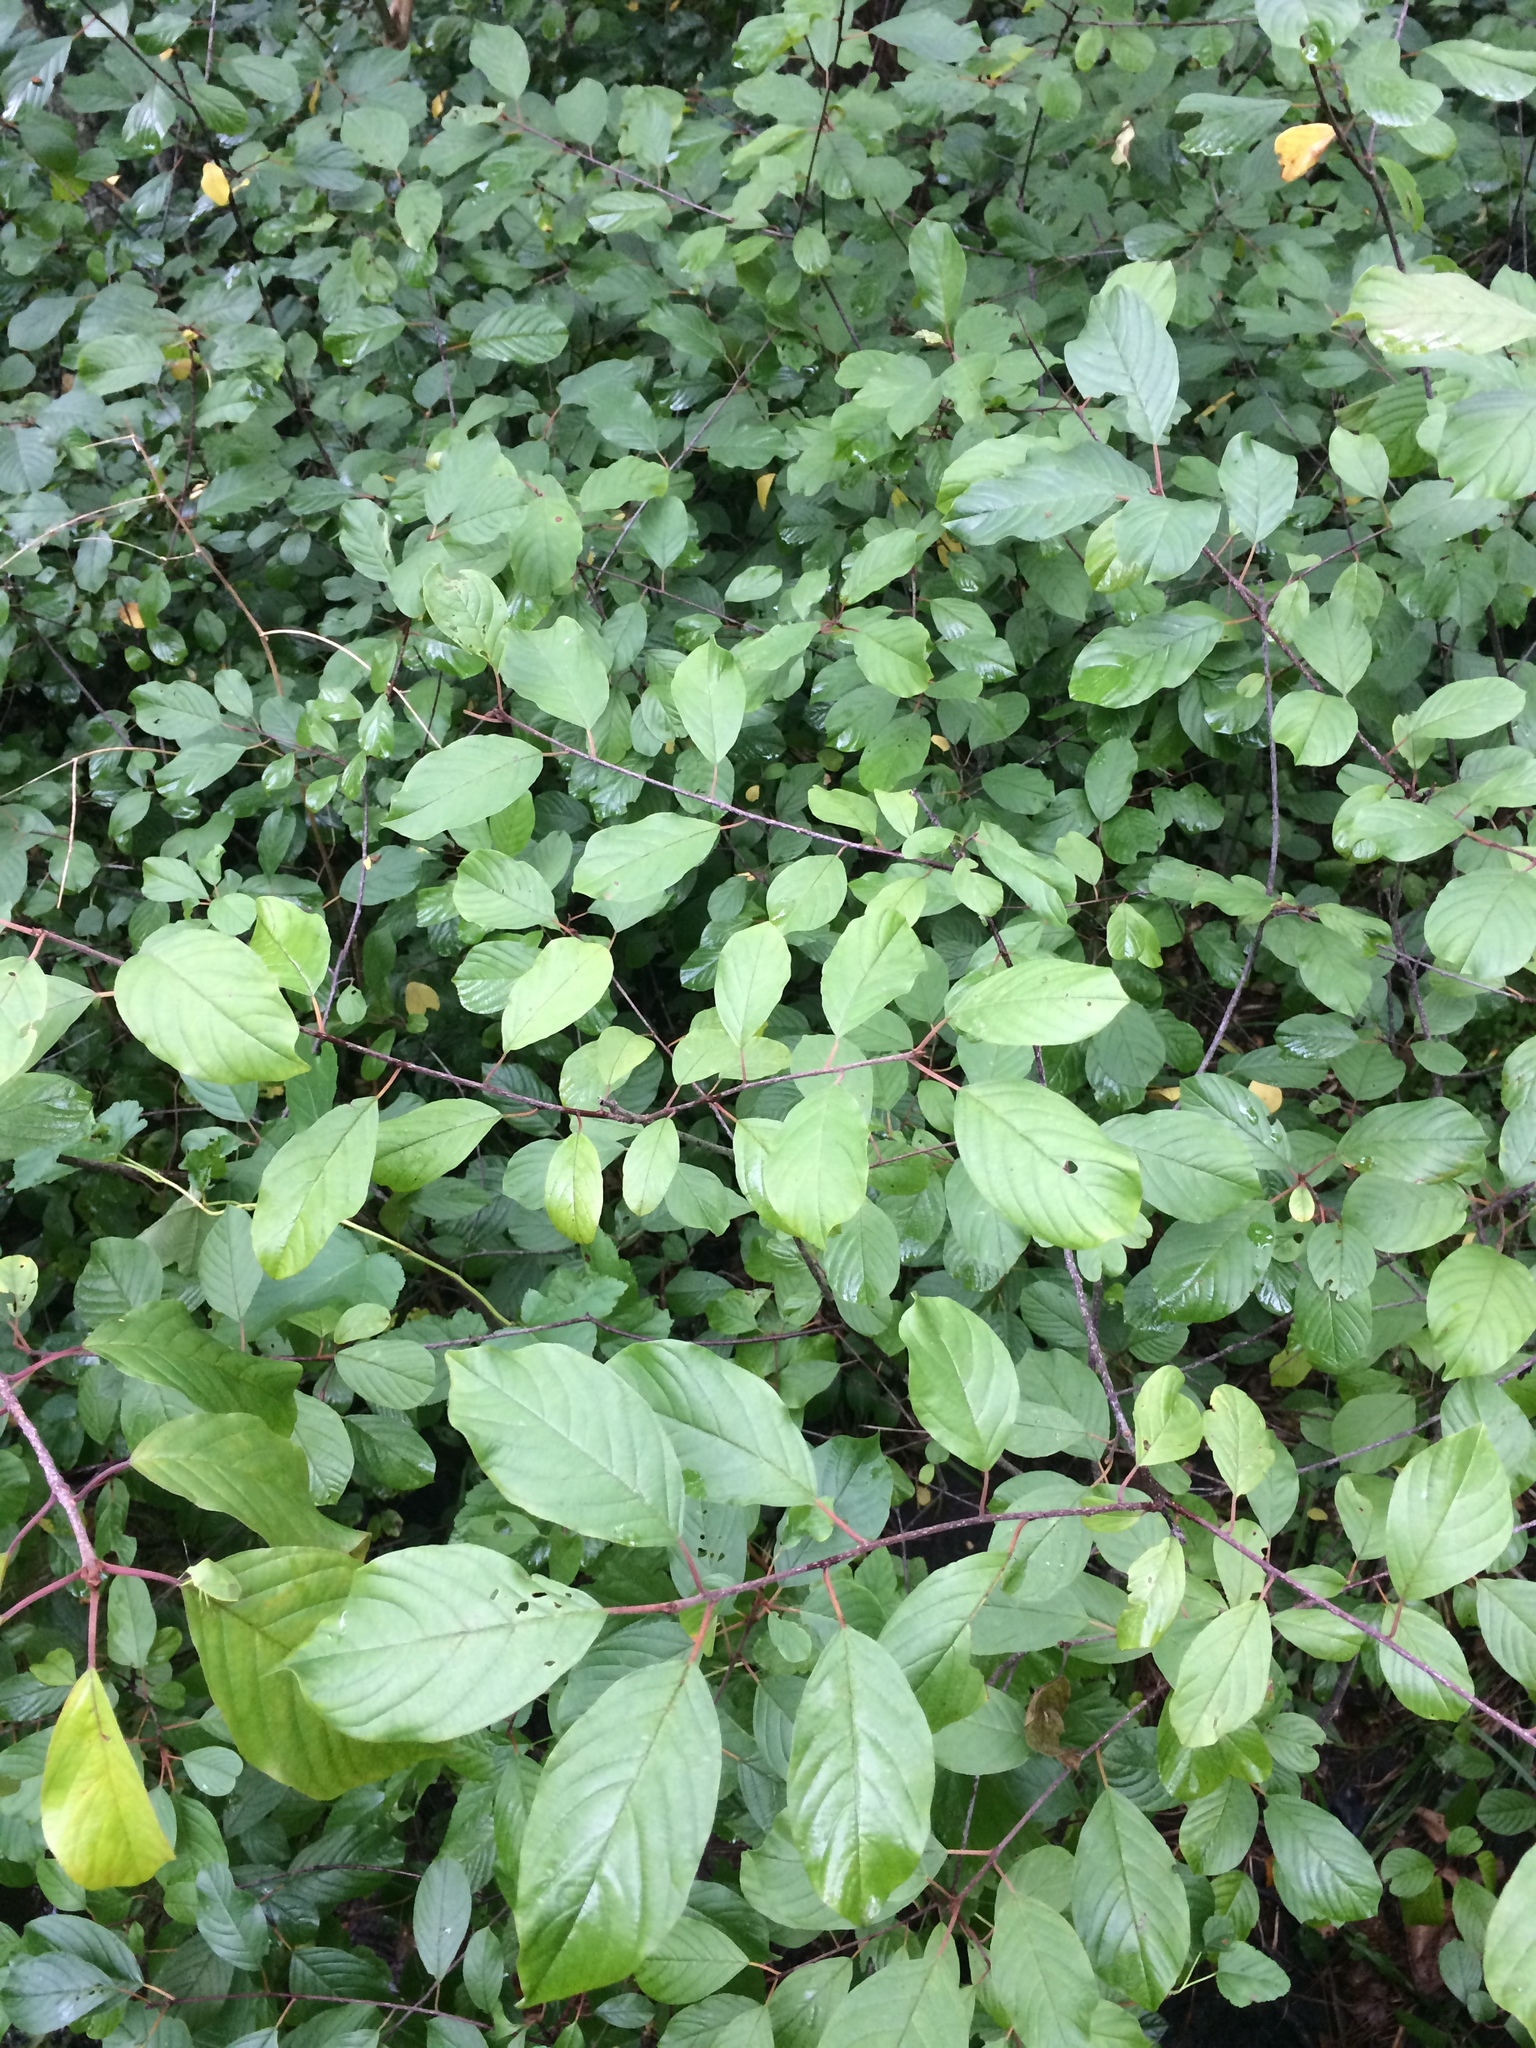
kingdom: Plantae
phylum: Tracheophyta
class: Magnoliopsida
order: Rosales
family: Rhamnaceae
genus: Frangula
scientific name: Frangula alnus
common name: Alder buckthorn
